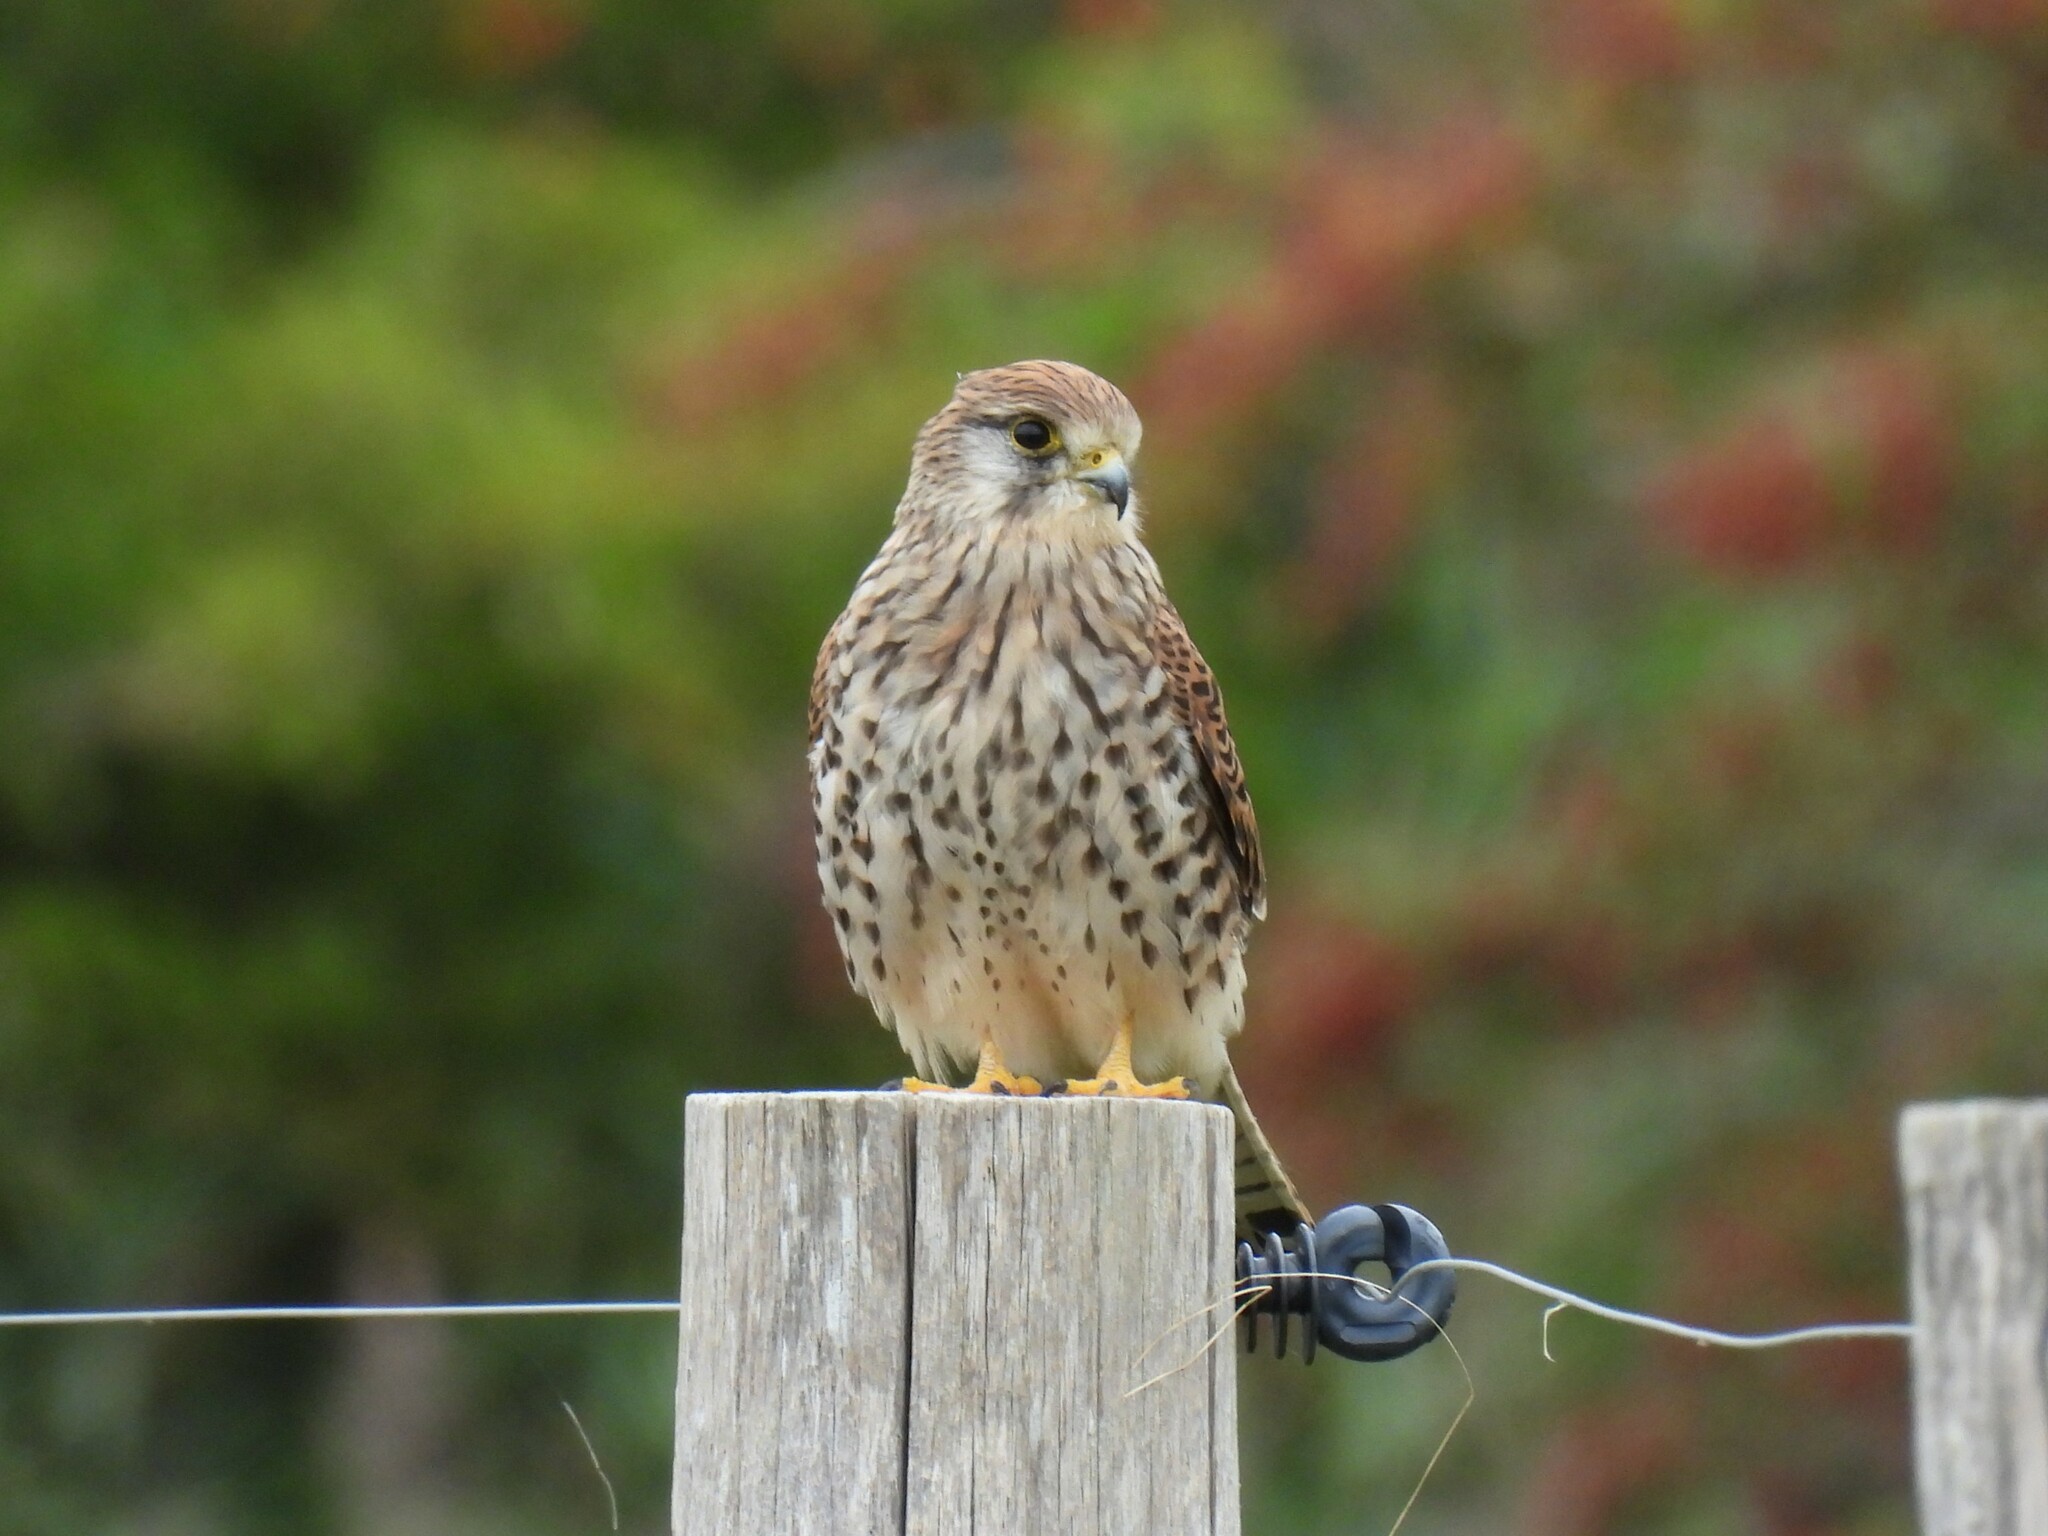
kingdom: Animalia
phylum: Chordata
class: Aves
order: Falconiformes
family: Falconidae
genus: Falco
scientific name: Falco tinnunculus
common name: Common kestrel
